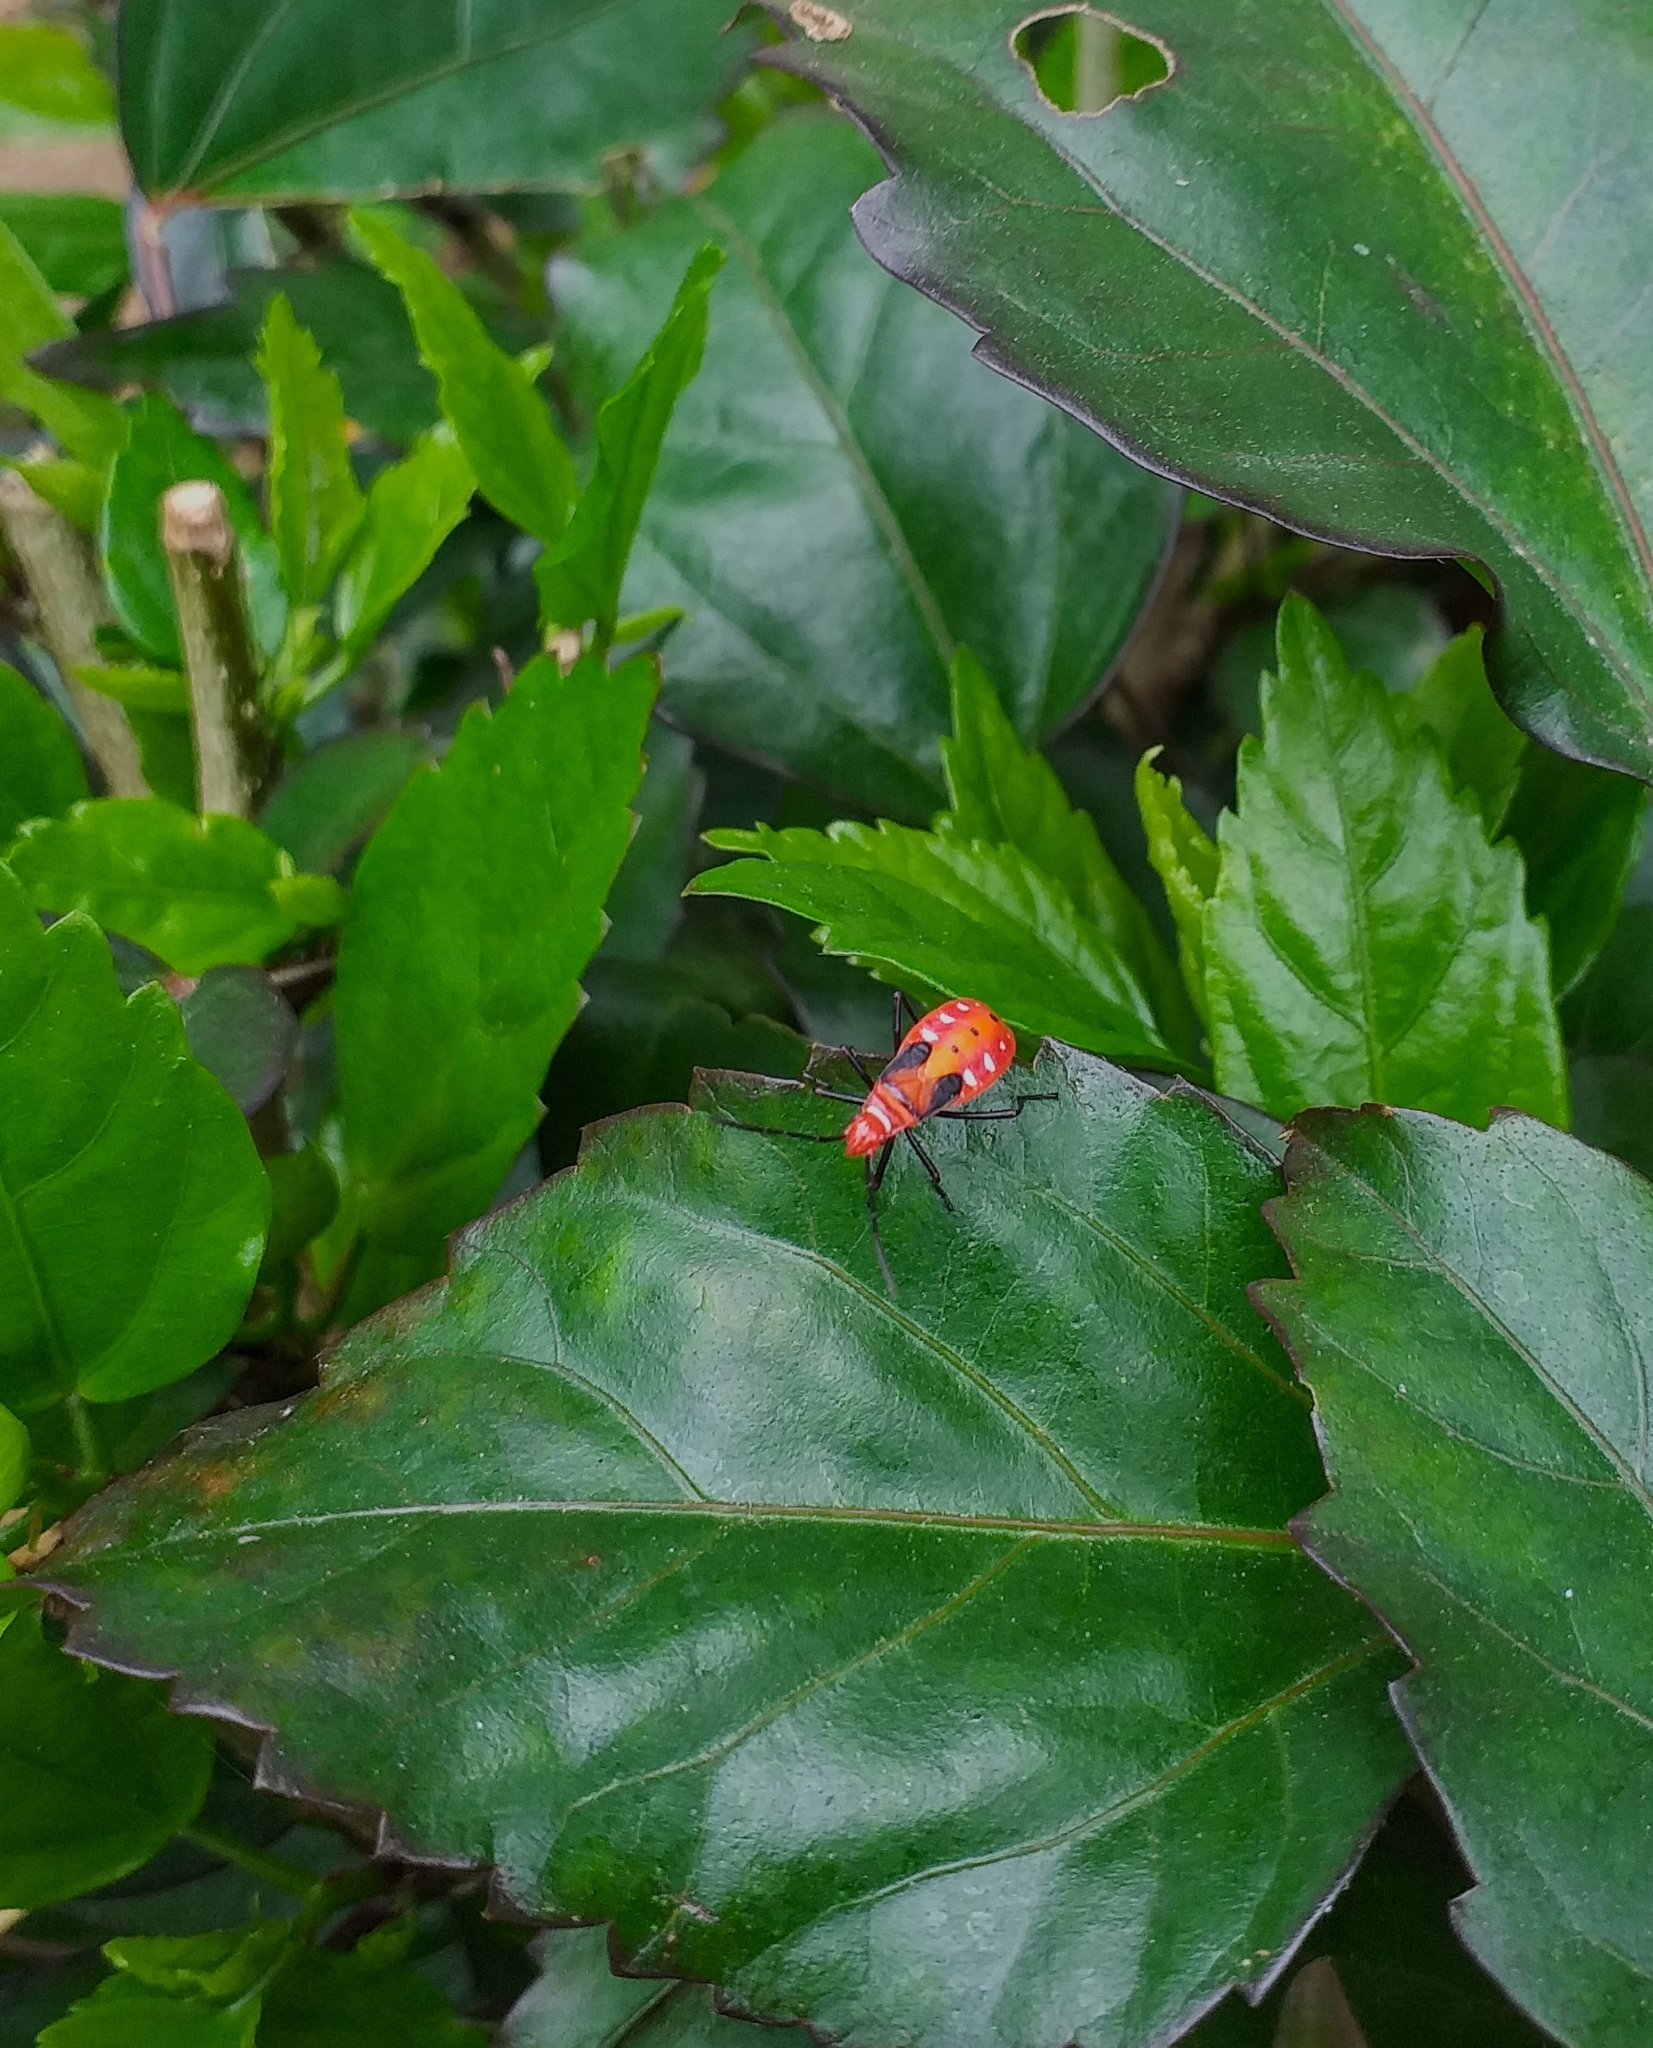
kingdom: Animalia
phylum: Arthropoda
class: Insecta
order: Hemiptera
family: Pyrrhocoridae
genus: Dysdercus
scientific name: Dysdercus cingulatus
